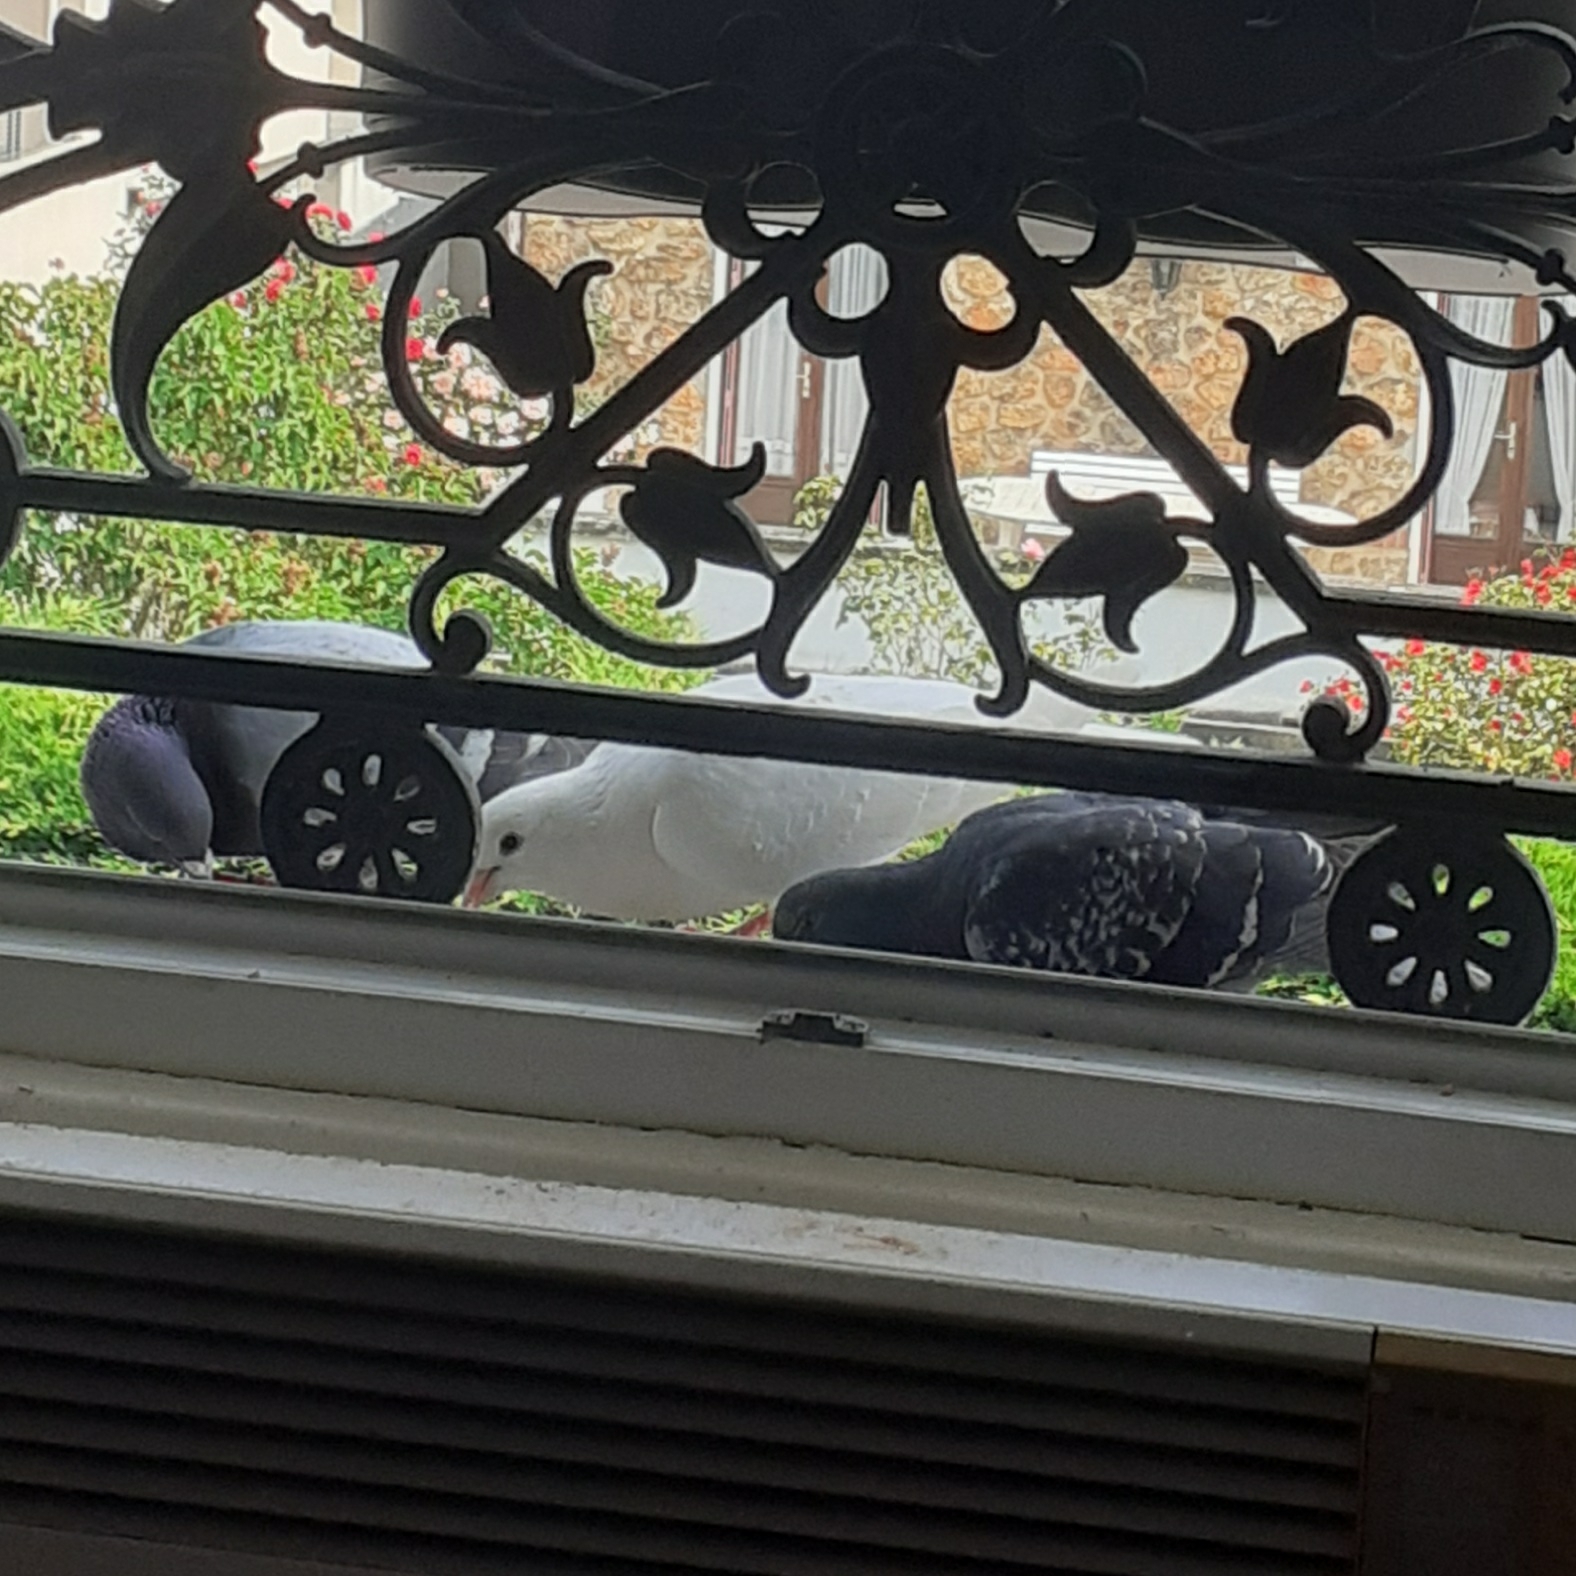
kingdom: Animalia
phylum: Chordata
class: Aves
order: Columbiformes
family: Columbidae
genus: Columba
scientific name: Columba livia
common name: Rock pigeon
